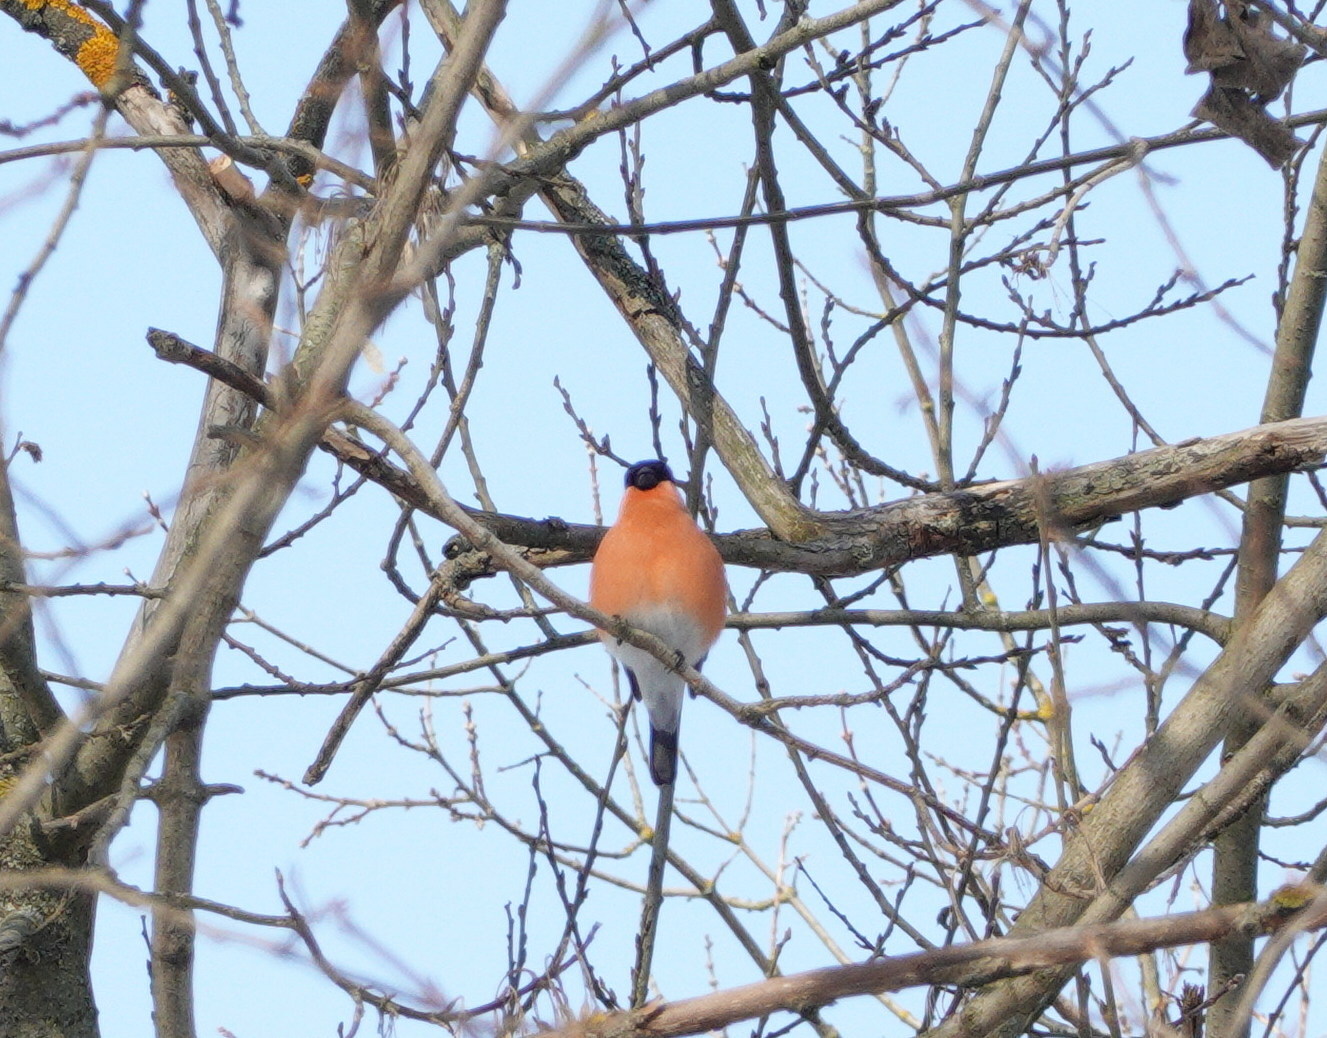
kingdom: Animalia
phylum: Chordata
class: Aves
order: Passeriformes
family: Fringillidae
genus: Pyrrhula
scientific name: Pyrrhula pyrrhula
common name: Eurasian bullfinch
